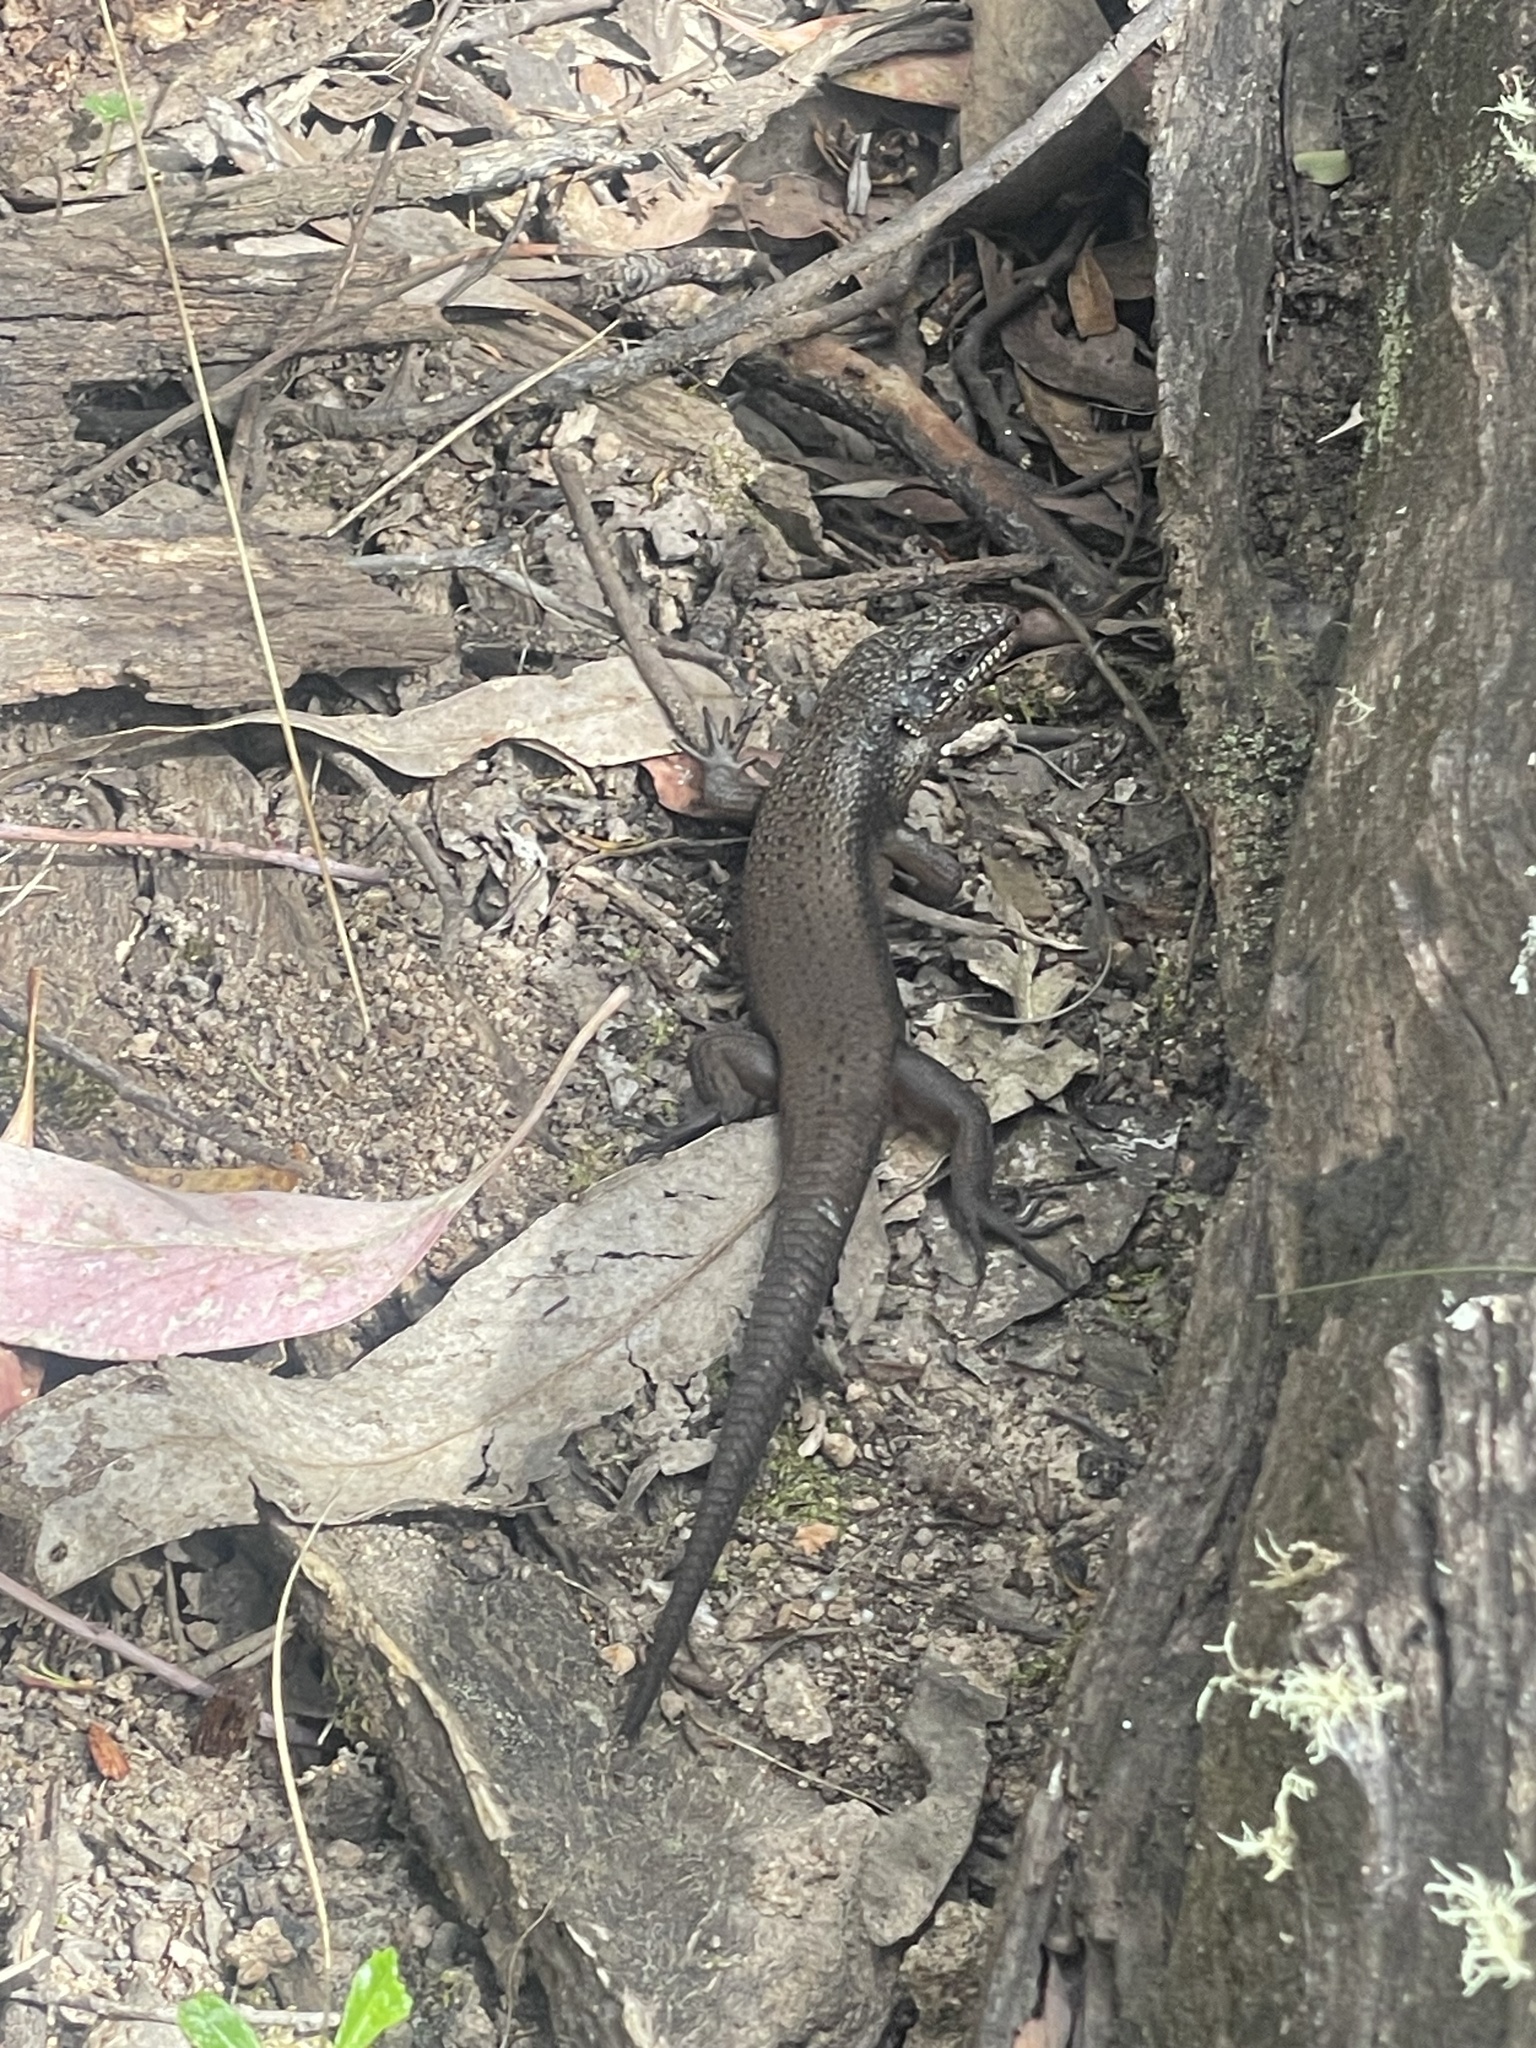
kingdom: Animalia
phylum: Chordata
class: Squamata
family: Scincidae
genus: Egernia
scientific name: Egernia saxatilis
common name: Black crevice-skink
